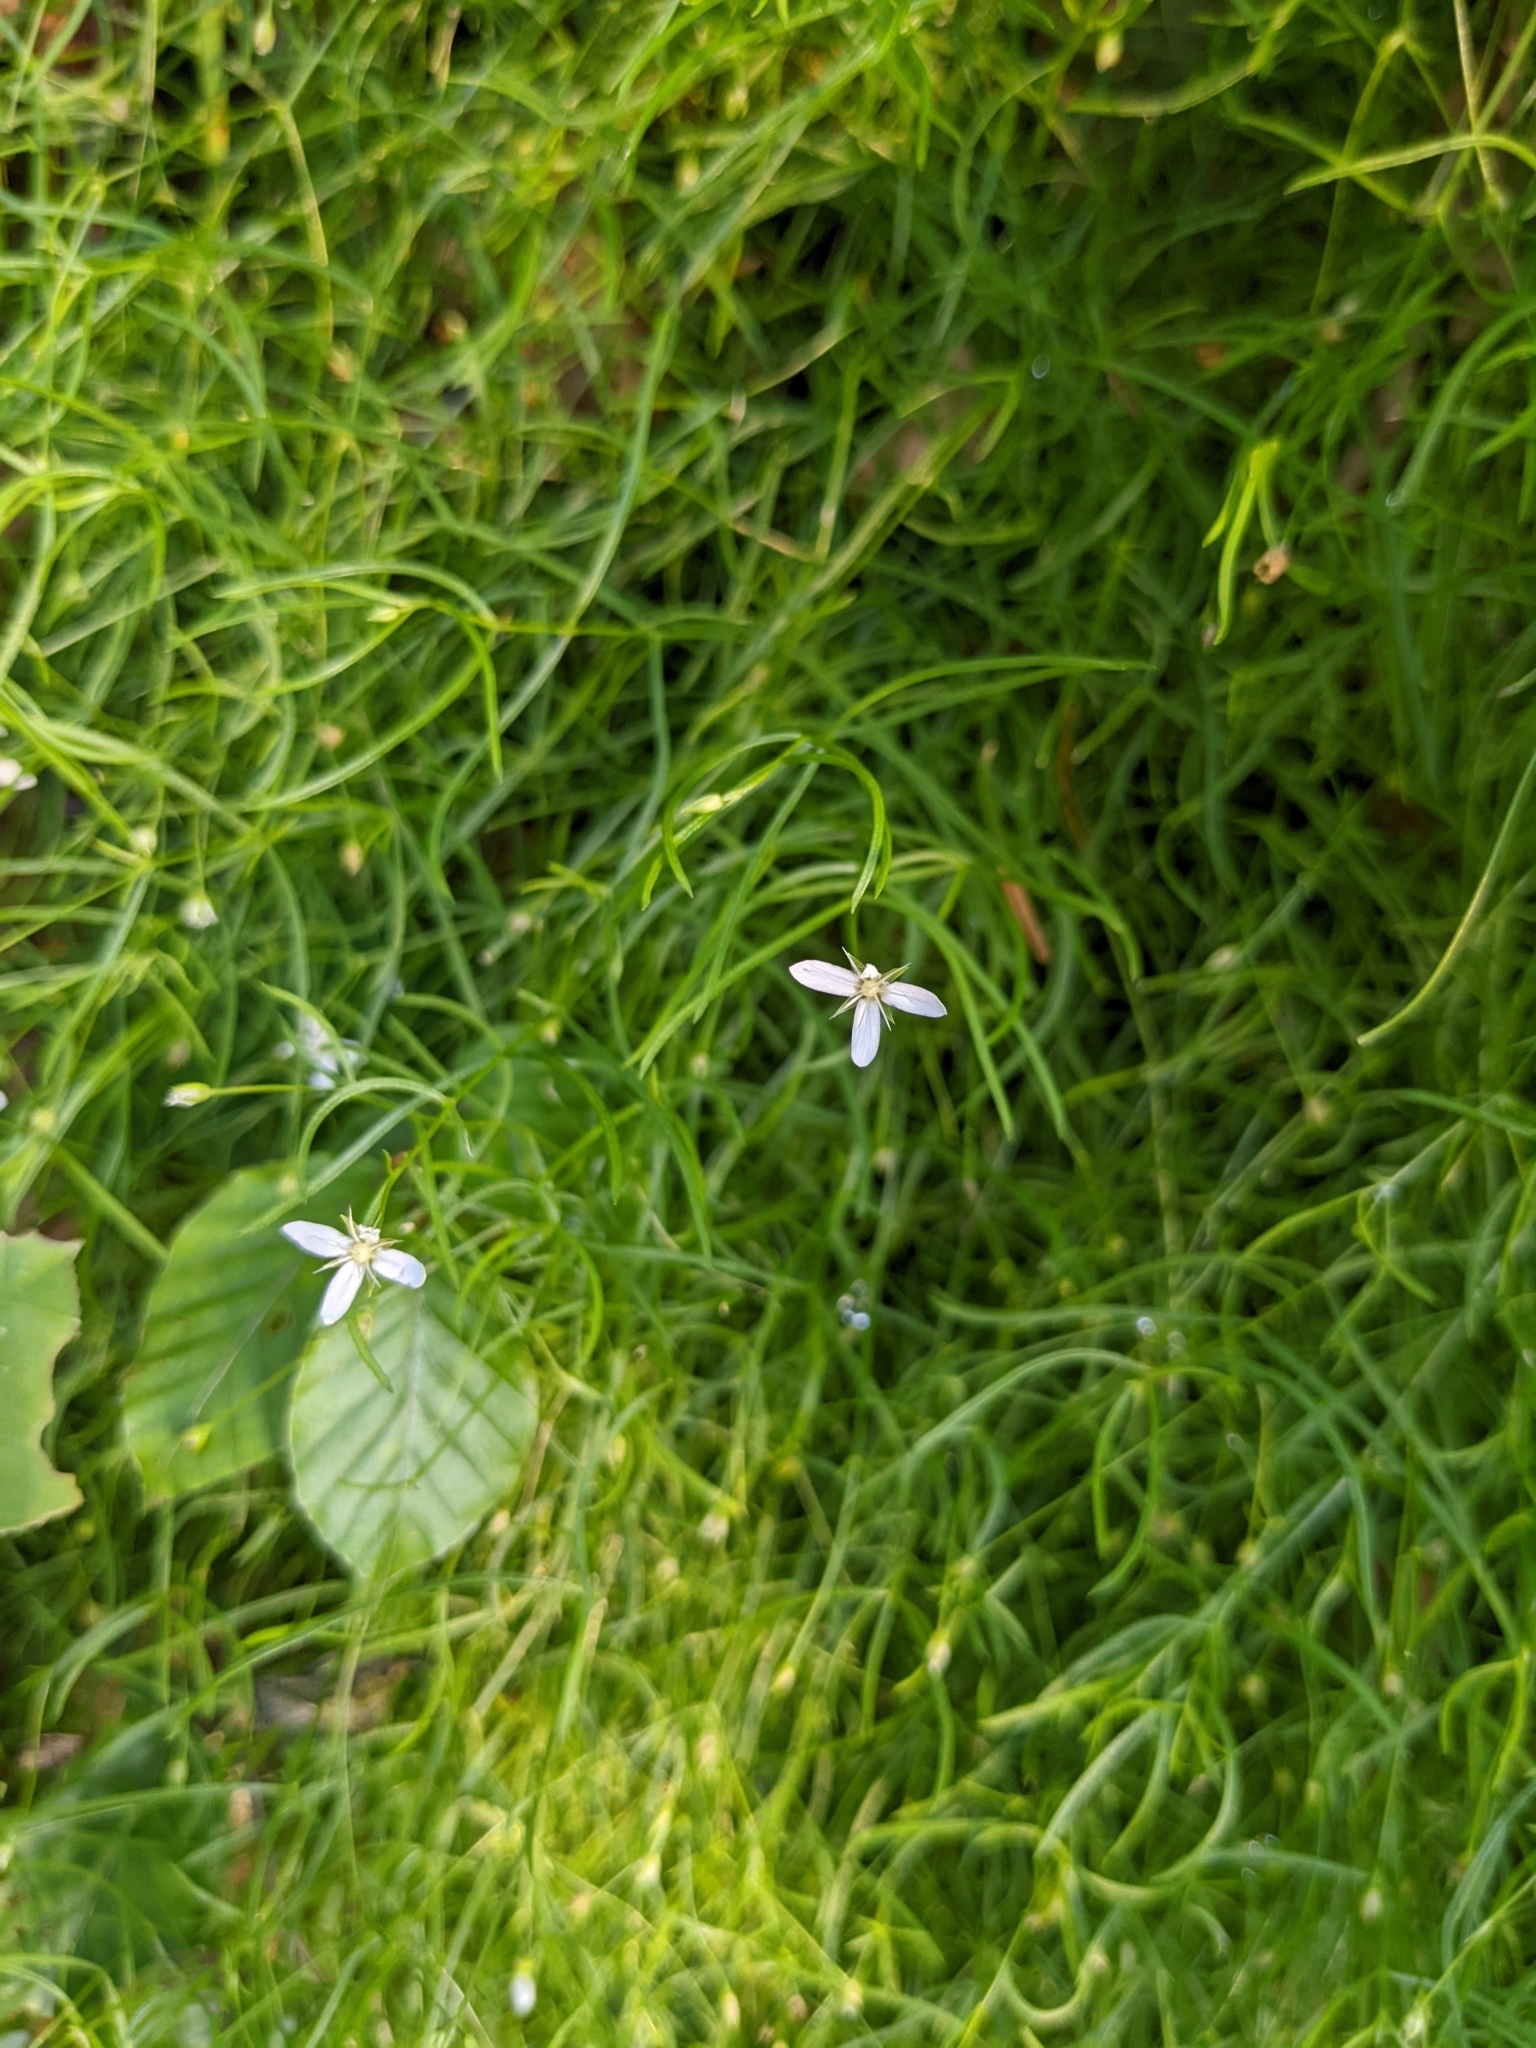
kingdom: Plantae
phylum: Tracheophyta
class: Magnoliopsida
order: Caryophyllales
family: Caryophyllaceae
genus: Moehringia
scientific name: Moehringia muscosa
